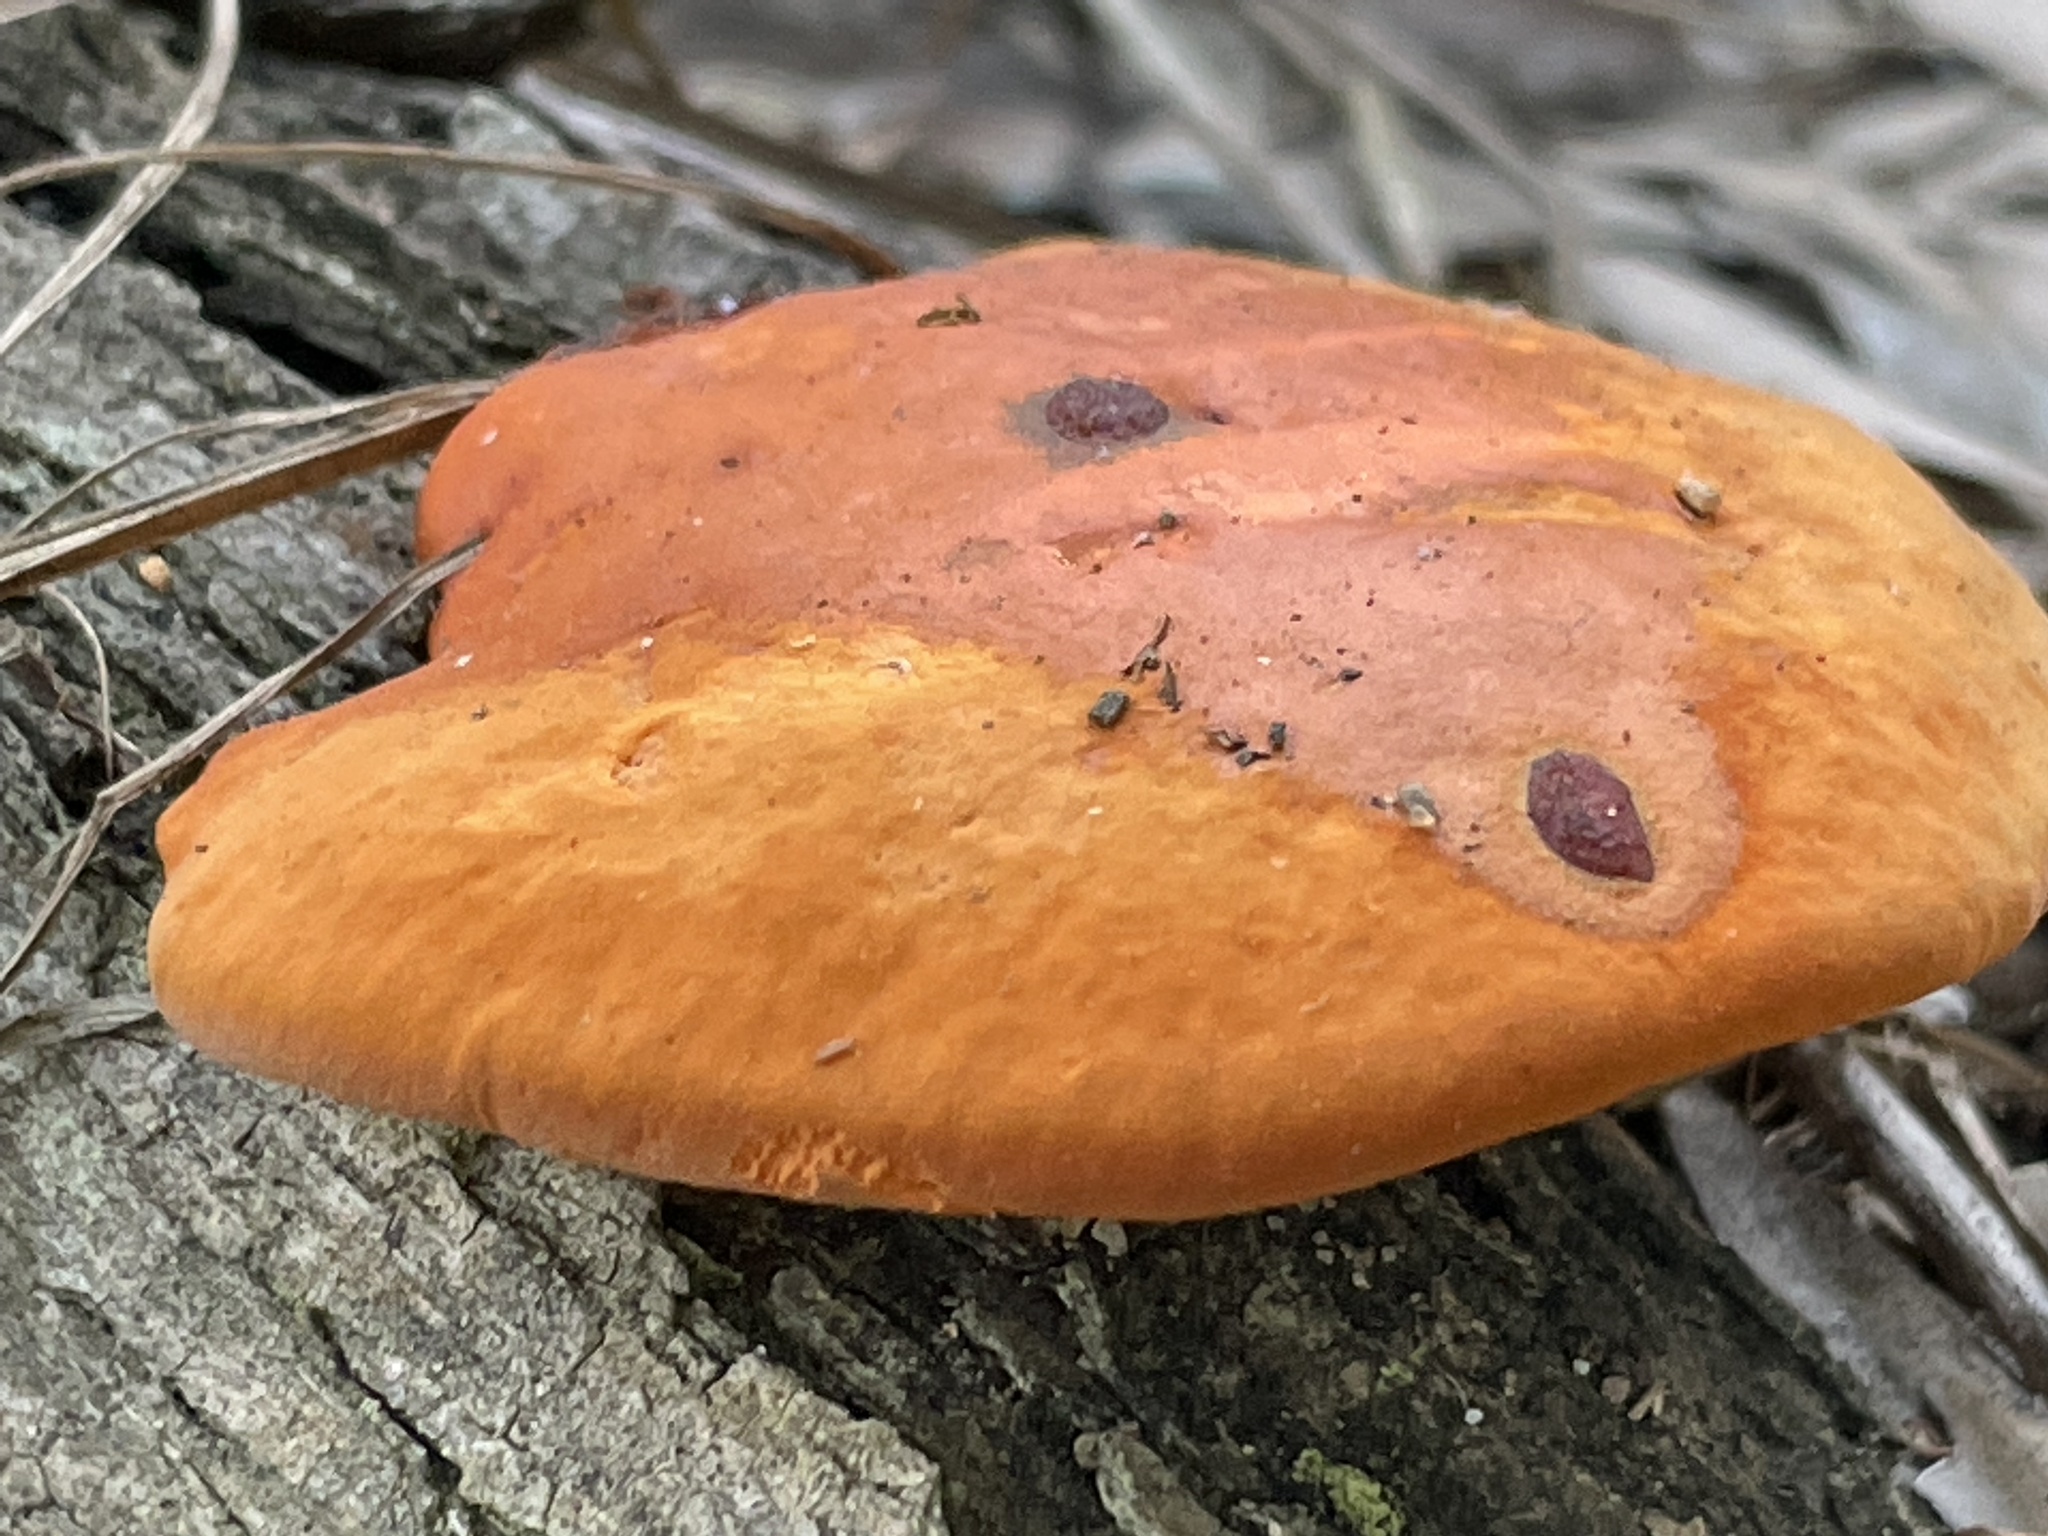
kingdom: Fungi
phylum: Basidiomycota
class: Agaricomycetes
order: Polyporales
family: Polyporaceae
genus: Trametes
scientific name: Trametes coccinea
